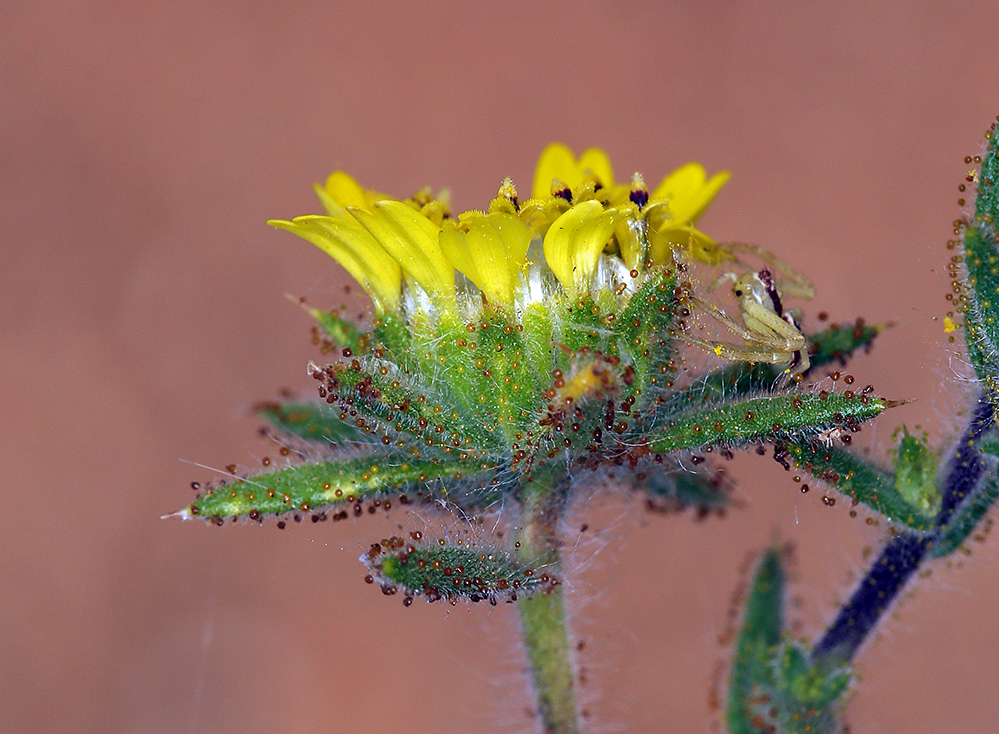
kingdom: Plantae
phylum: Tracheophyta
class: Magnoliopsida
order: Asterales
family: Asteraceae
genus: Centromadia
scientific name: Centromadia fitchii
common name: Fitch's spikeweed
